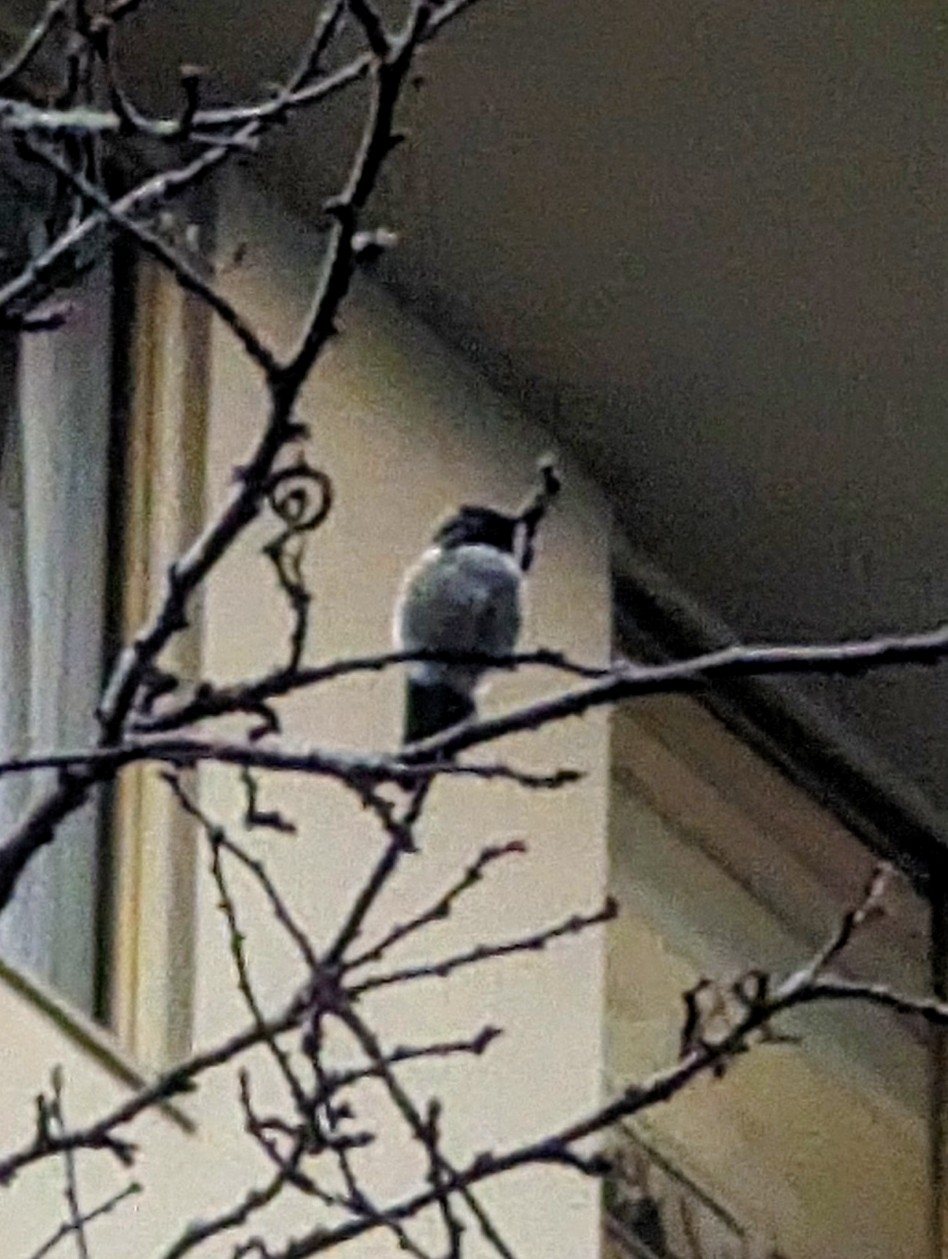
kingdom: Animalia
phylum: Chordata
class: Aves
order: Apodiformes
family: Trochilidae
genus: Calypte
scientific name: Calypte anna
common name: Anna's hummingbird
